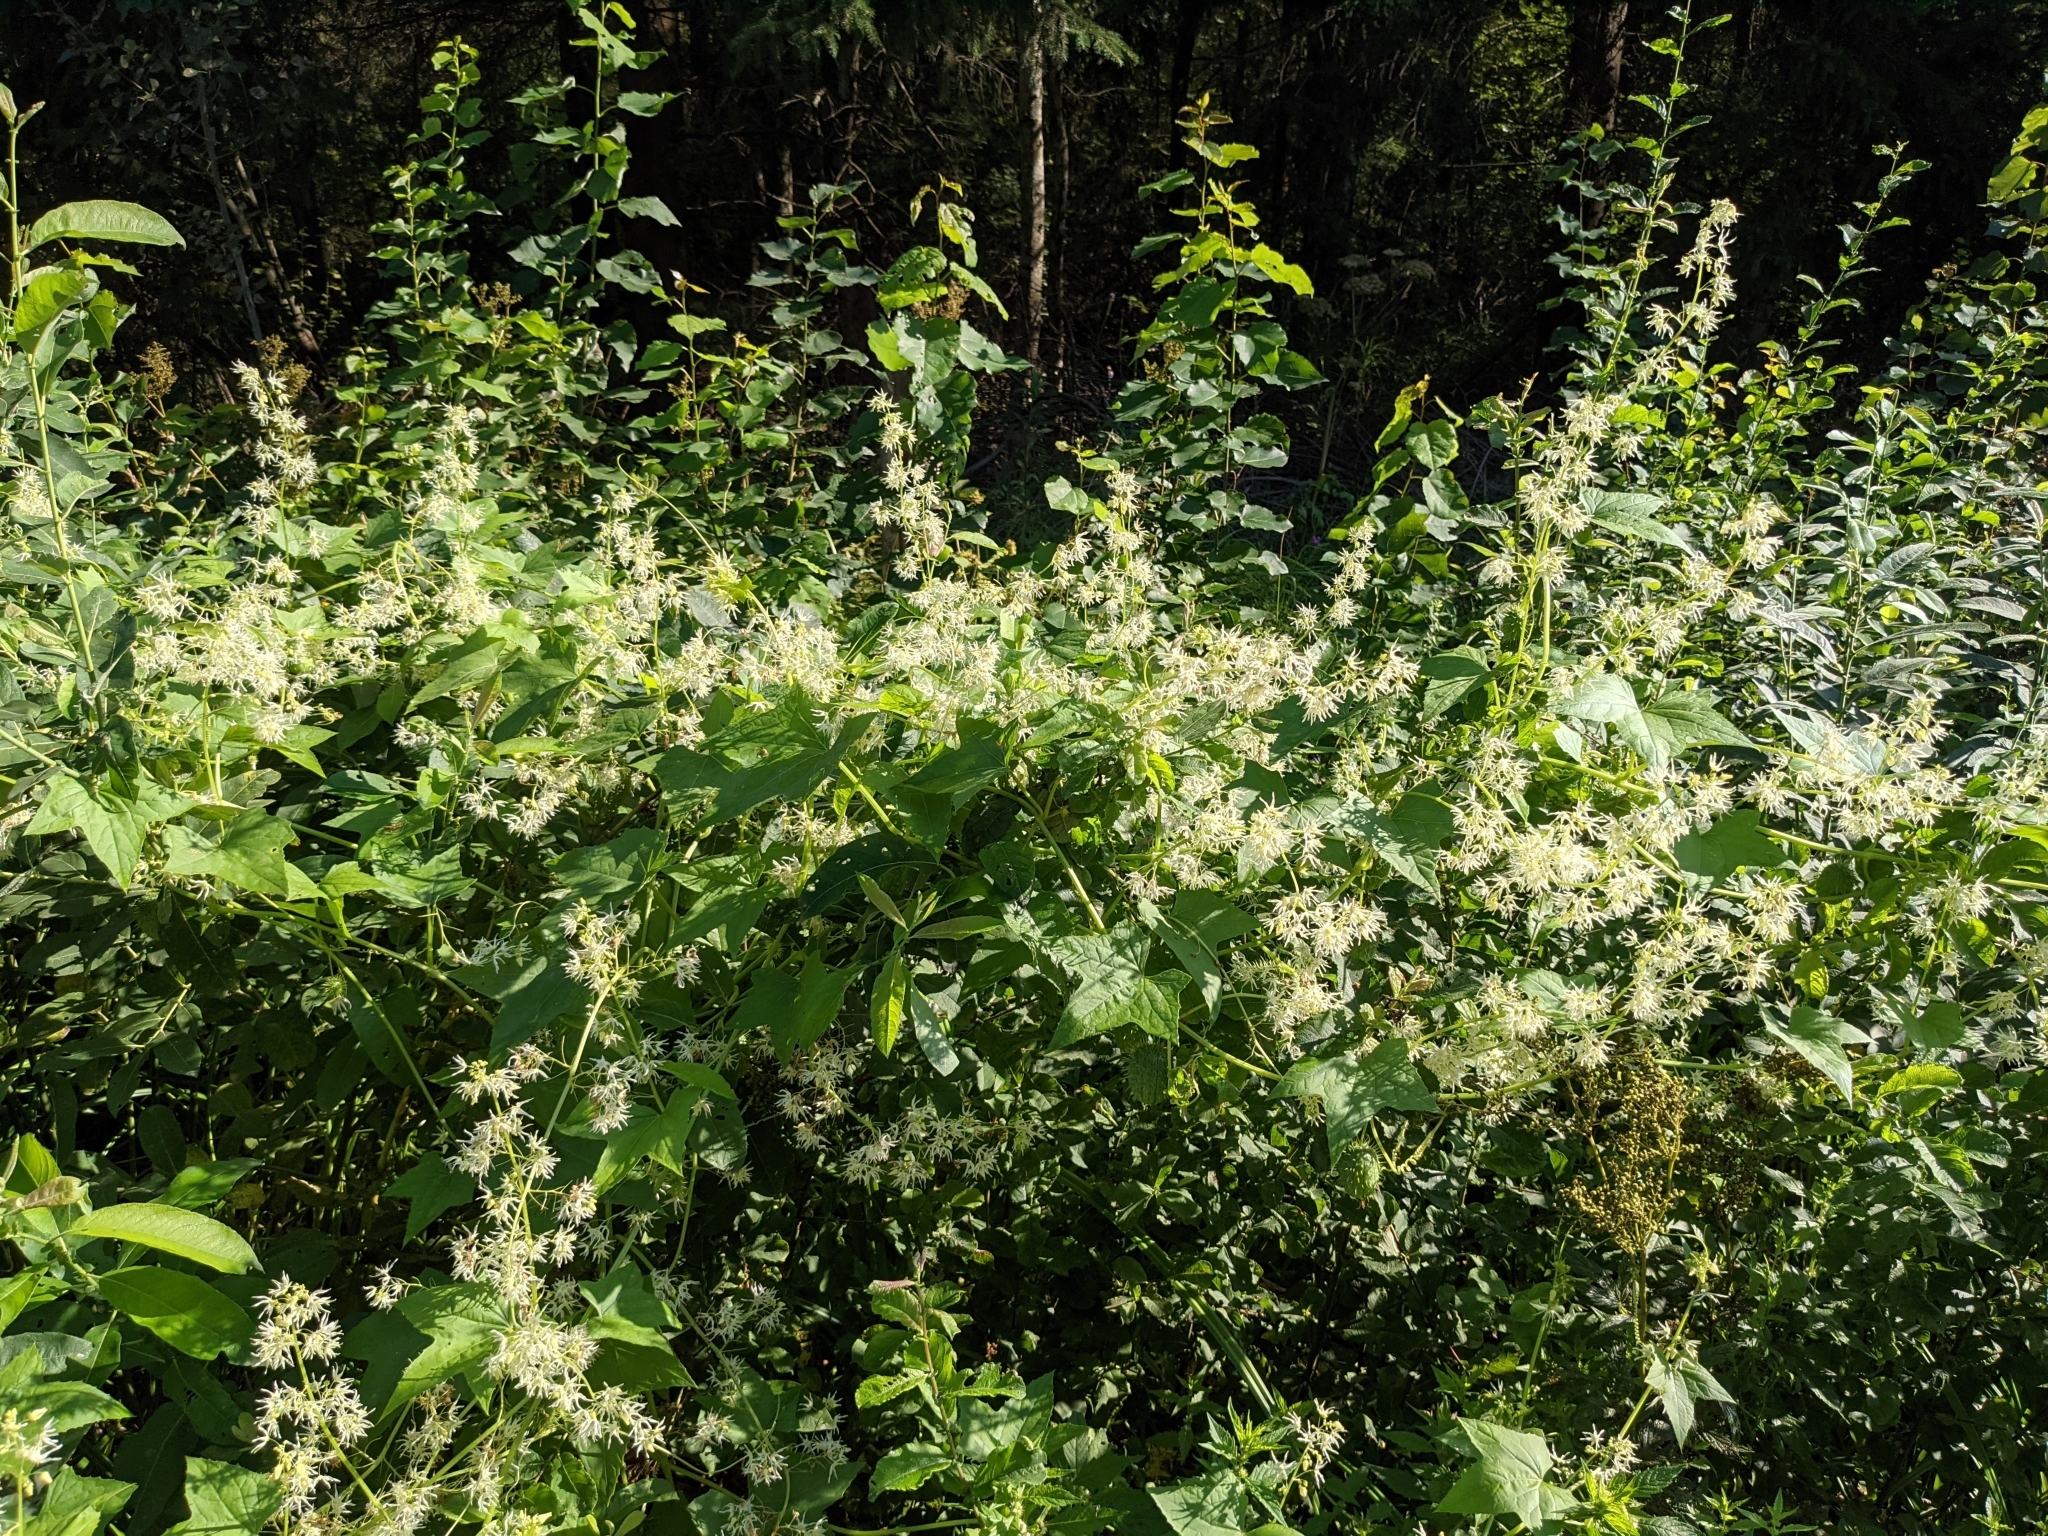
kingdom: Plantae
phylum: Tracheophyta
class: Magnoliopsida
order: Cucurbitales
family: Cucurbitaceae
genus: Echinocystis
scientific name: Echinocystis lobata
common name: Wild cucumber
